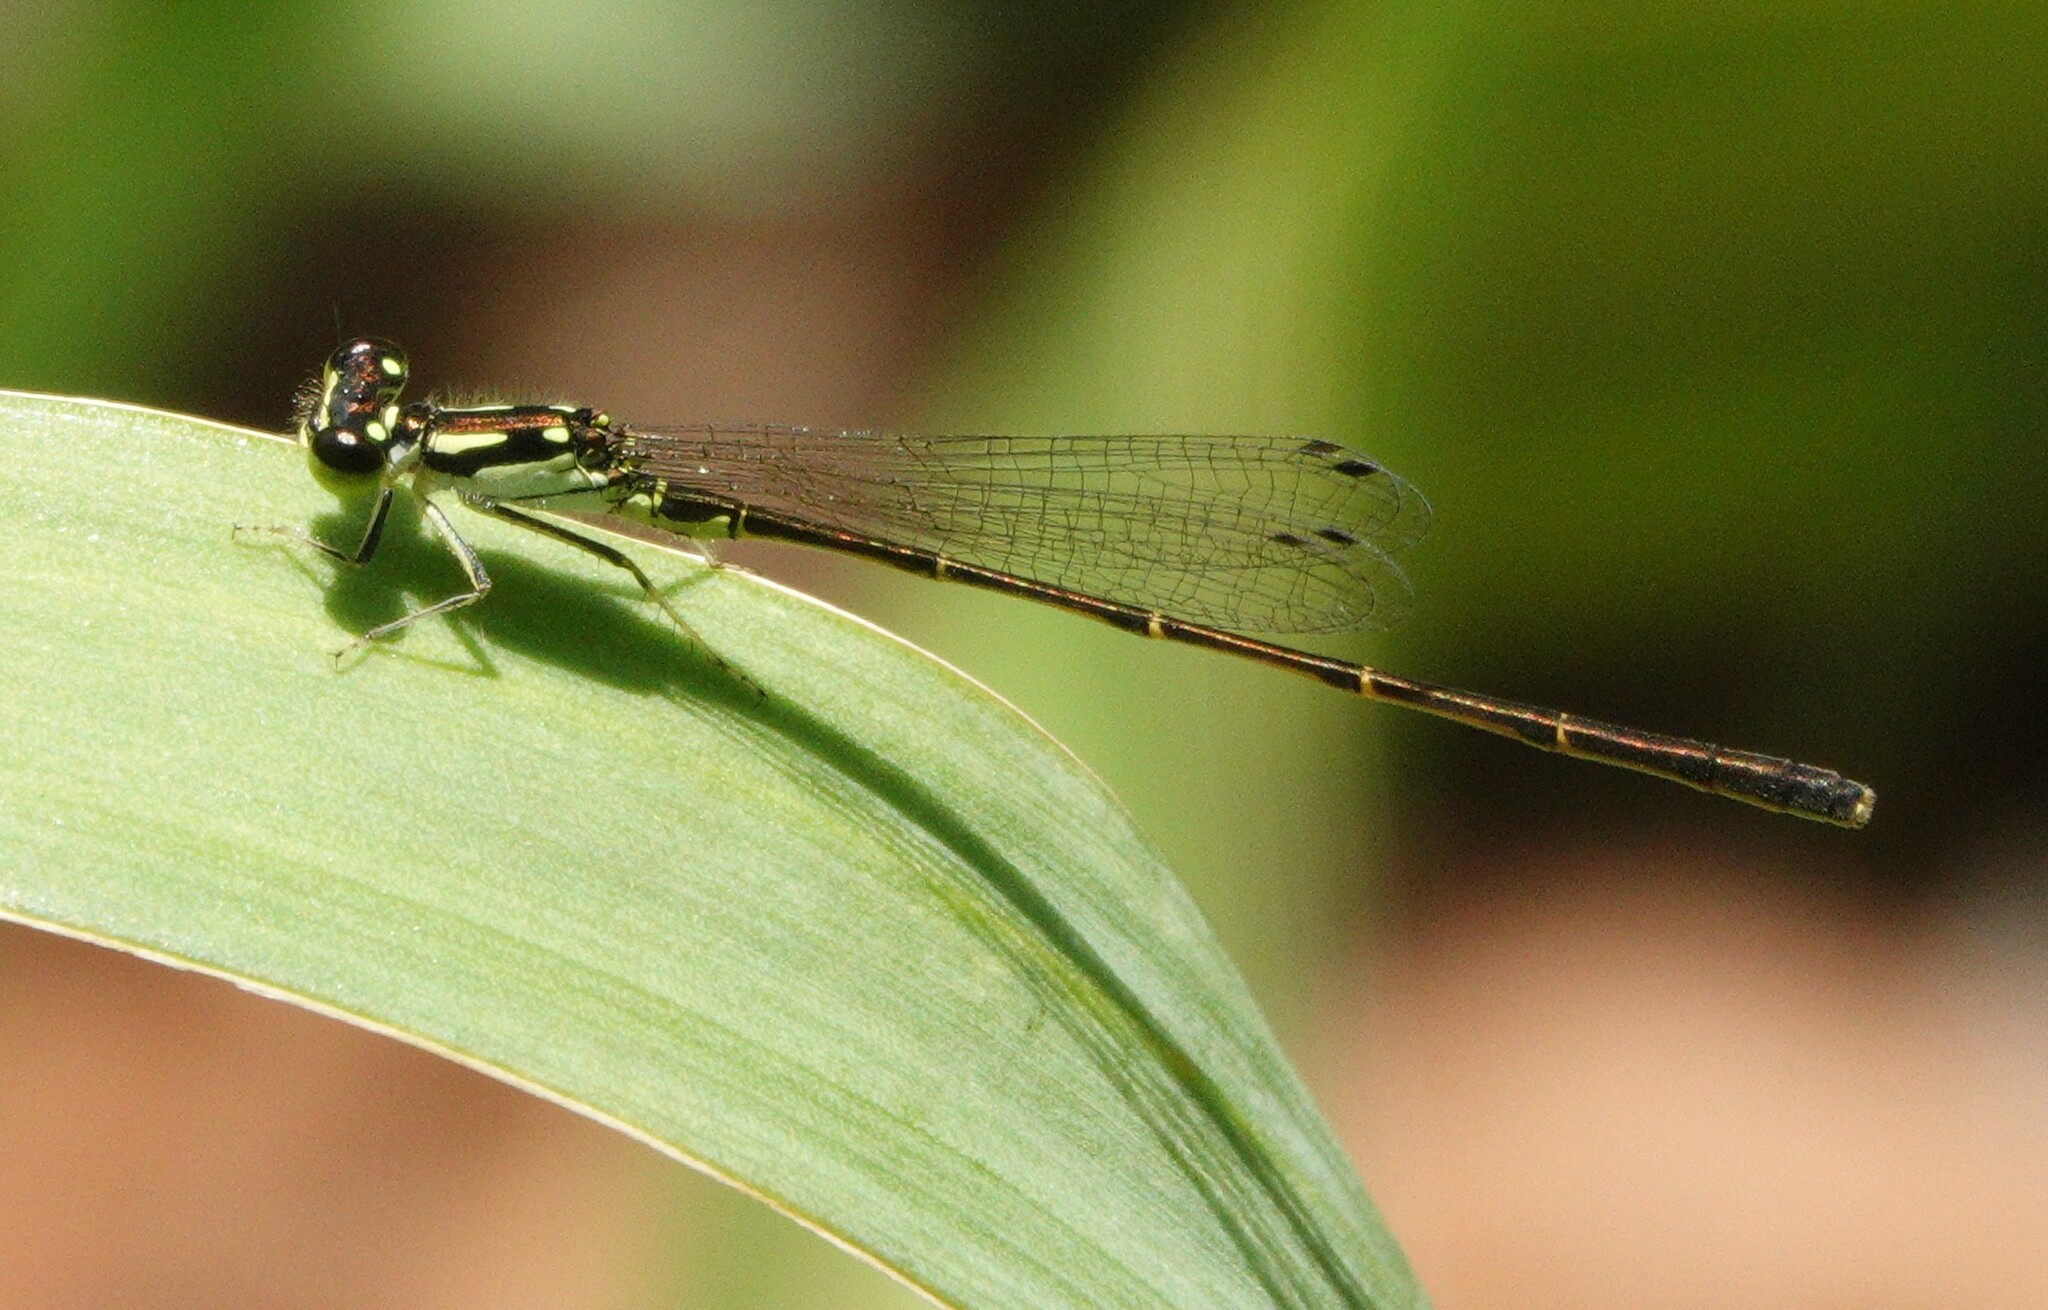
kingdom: Animalia
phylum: Arthropoda
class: Insecta
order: Odonata
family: Coenagrionidae
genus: Ischnura
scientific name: Ischnura posita
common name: Fragile forktail
